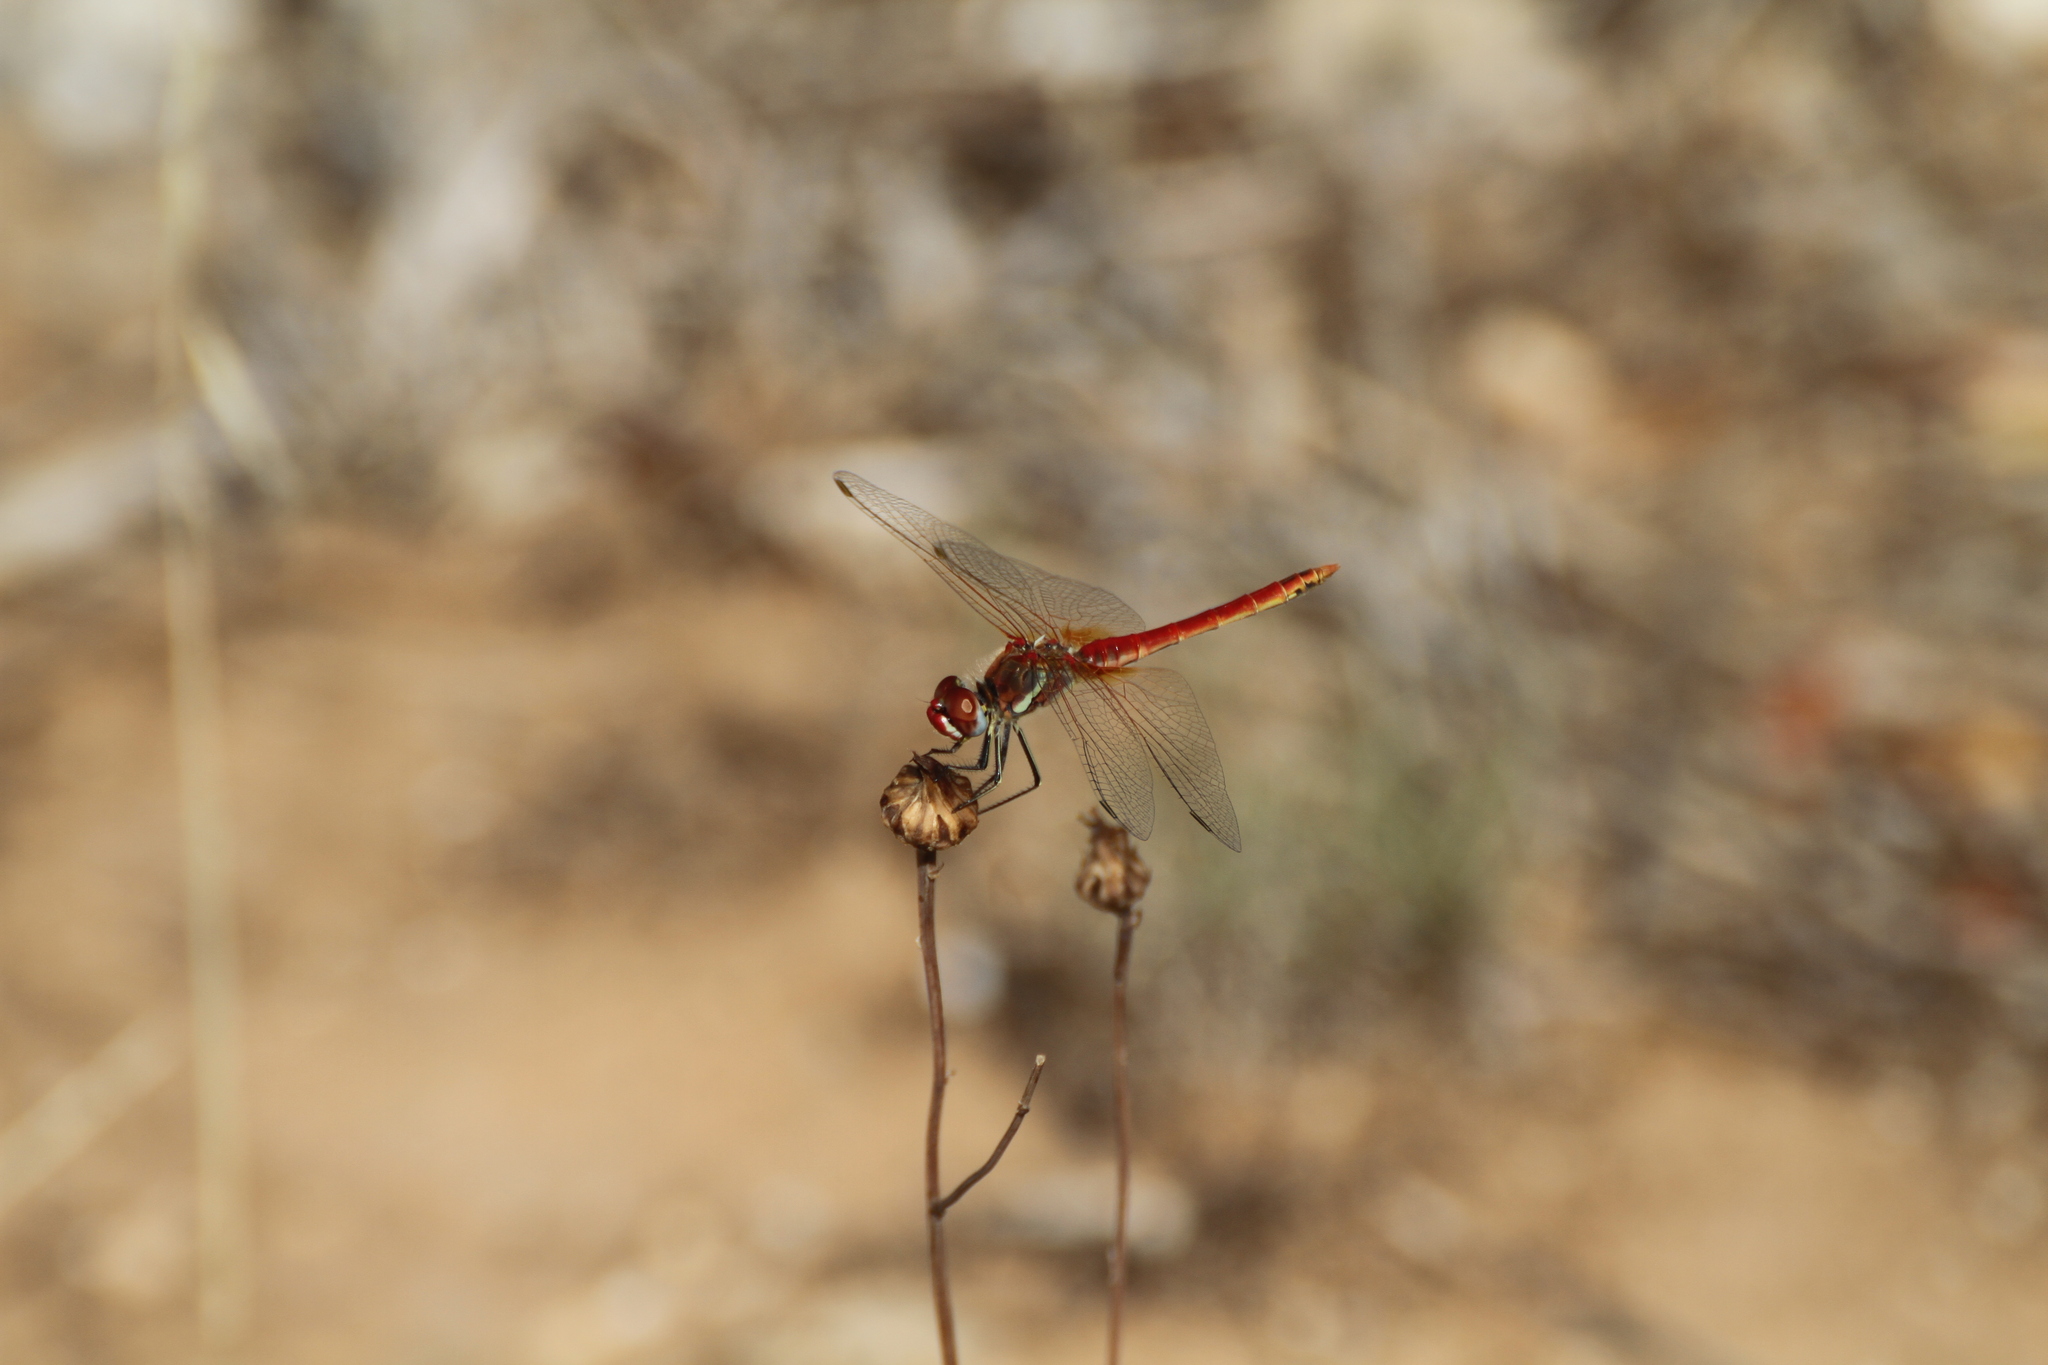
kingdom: Animalia
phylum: Arthropoda
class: Insecta
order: Odonata
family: Libellulidae
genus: Sympetrum
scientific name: Sympetrum fonscolombii
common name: Red-veined darter
